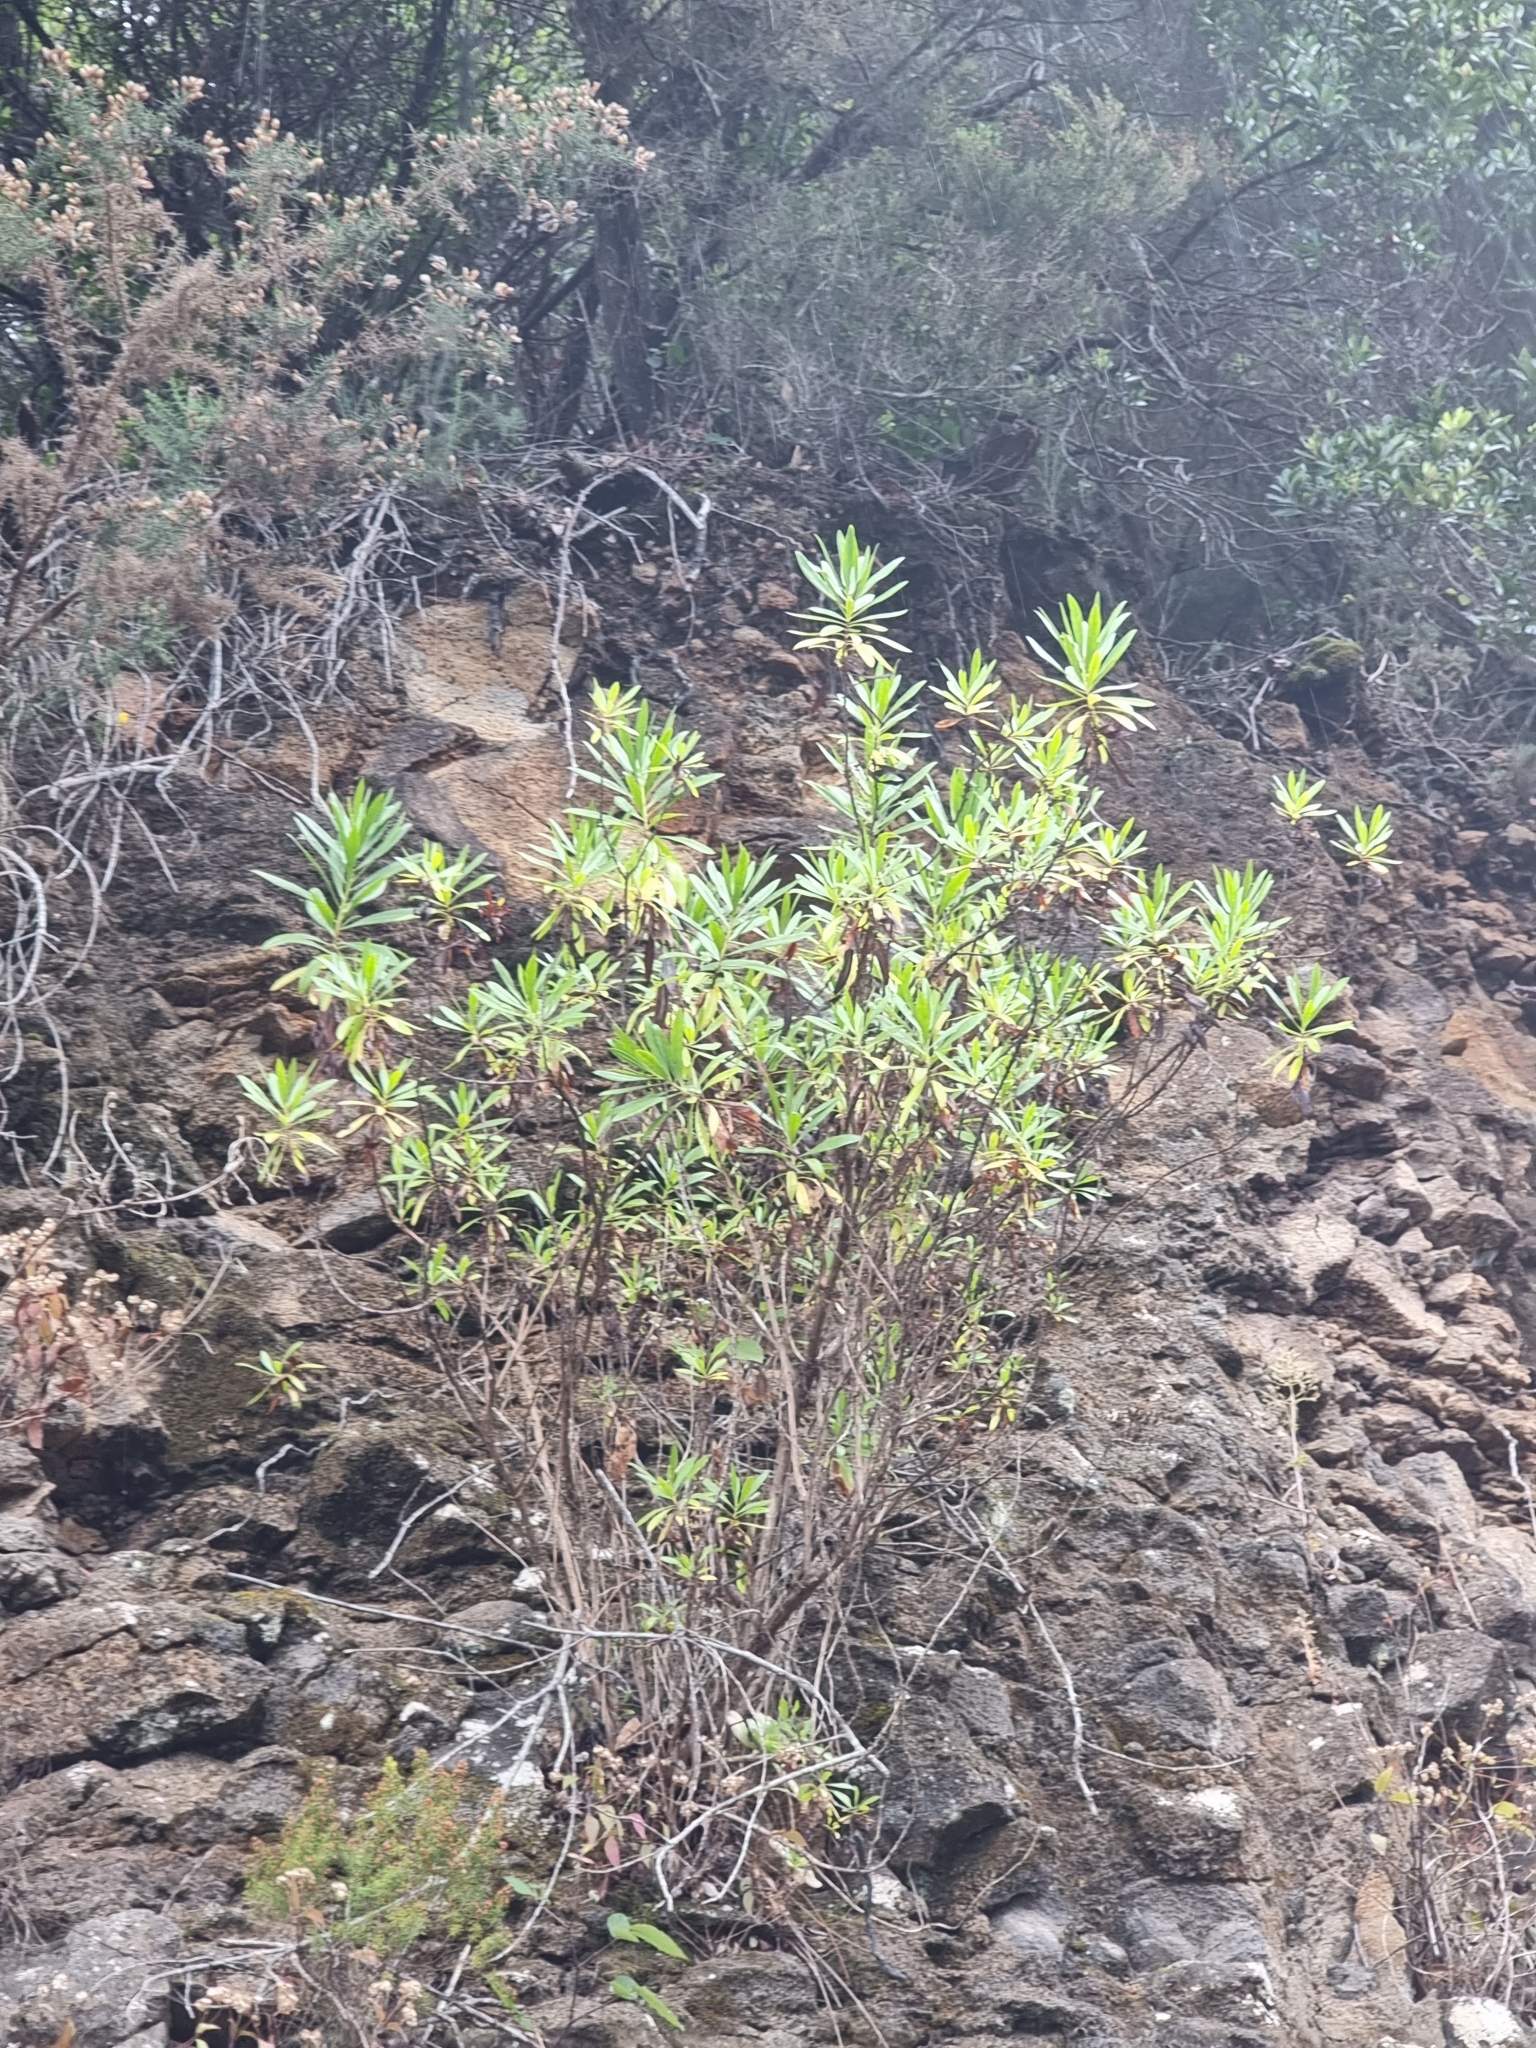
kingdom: Plantae
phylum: Tracheophyta
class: Magnoliopsida
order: Lamiales
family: Plantaginaceae
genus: Globularia
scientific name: Globularia salicina
